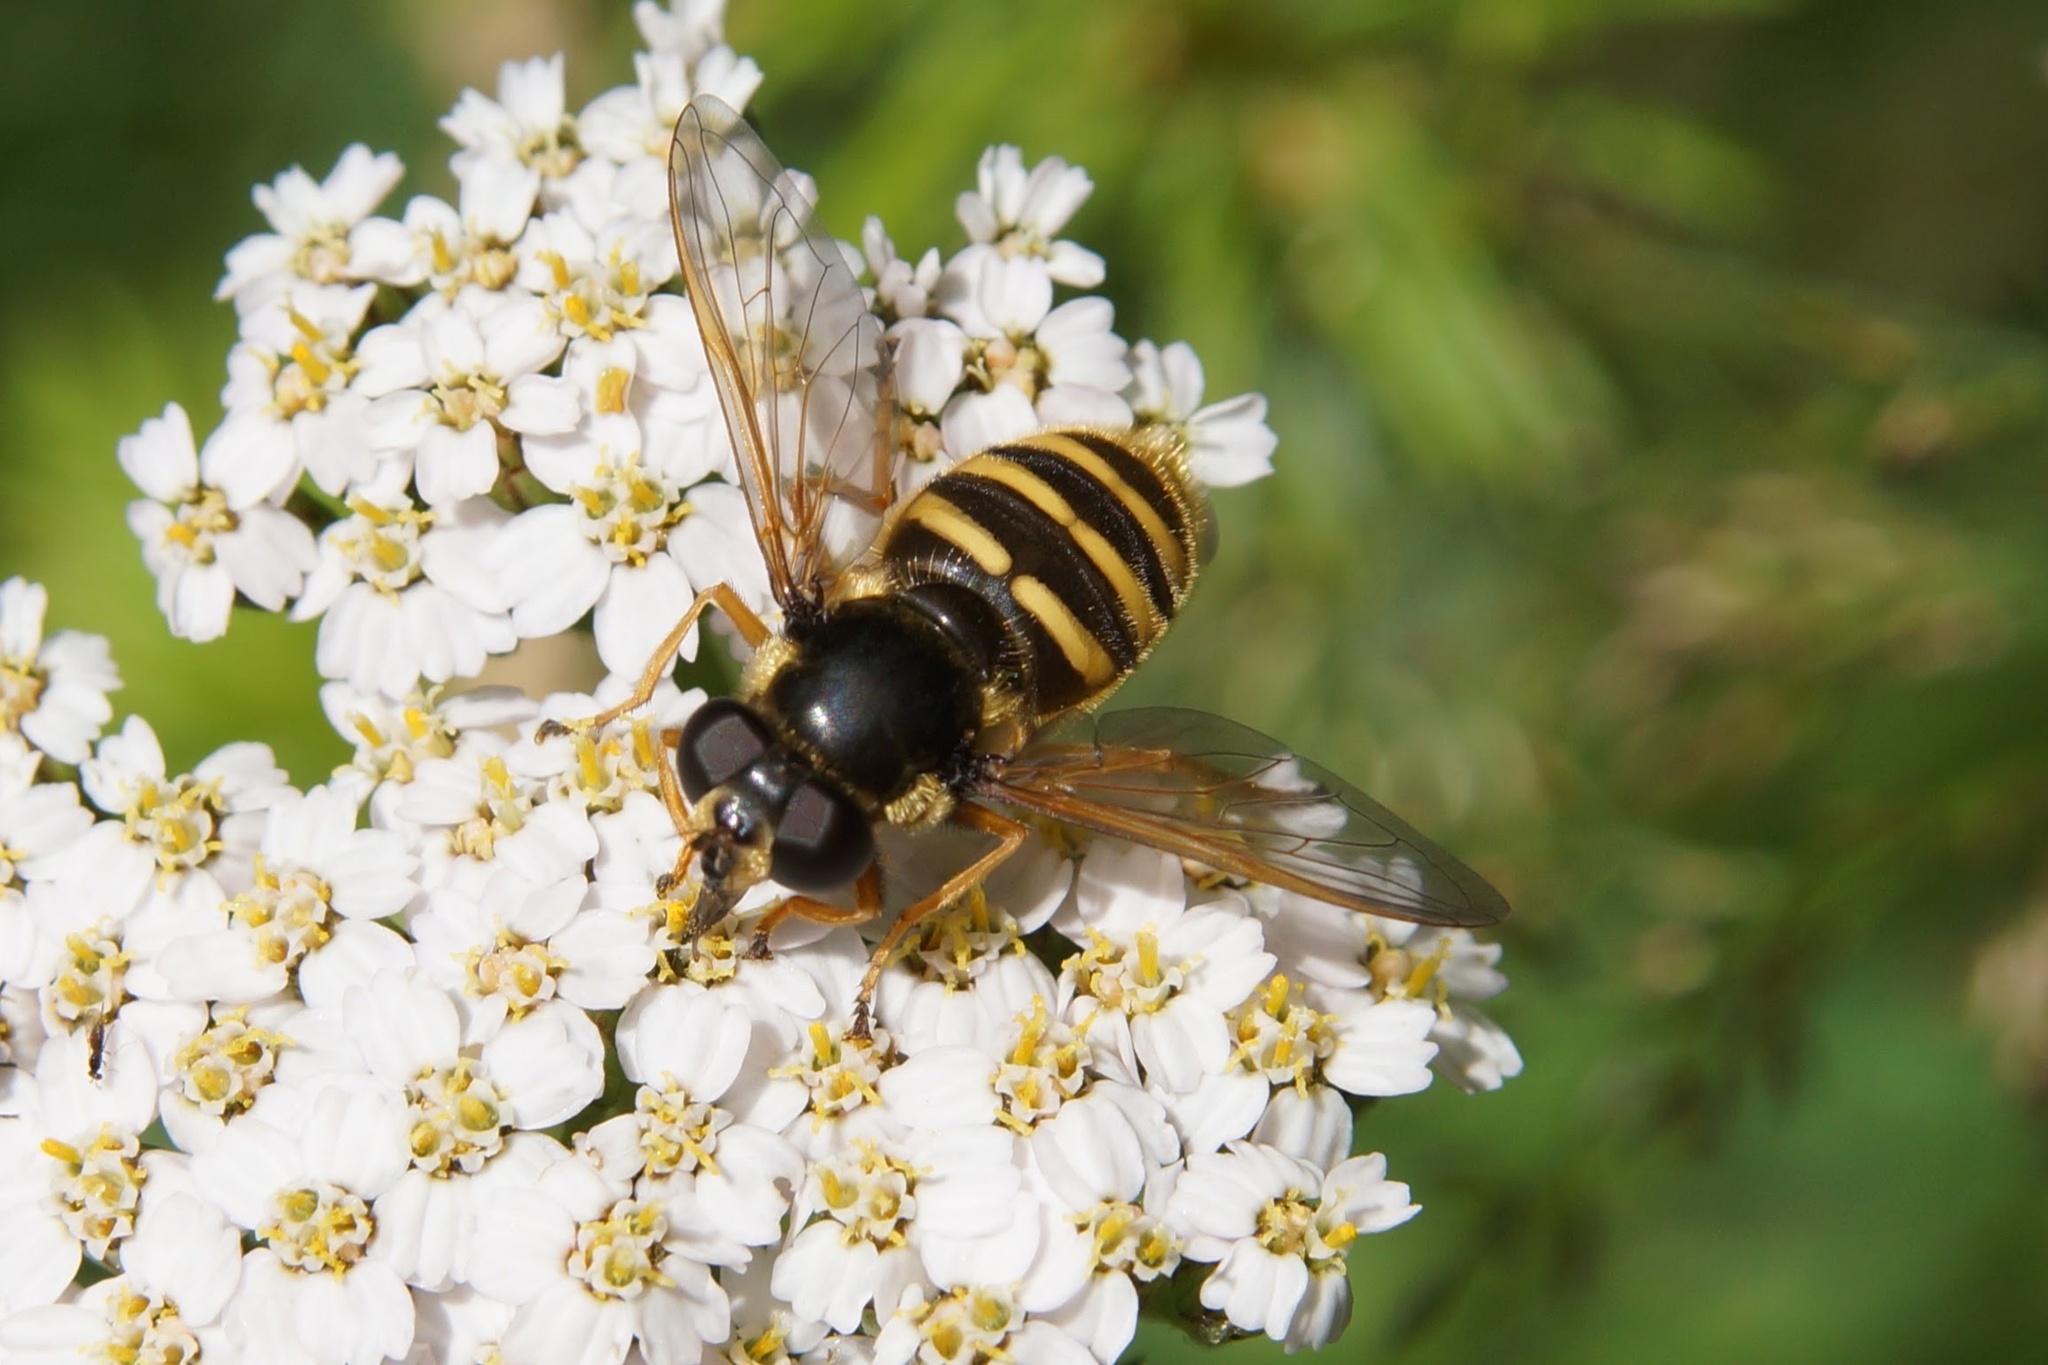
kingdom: Animalia
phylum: Arthropoda
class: Insecta
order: Diptera
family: Syrphidae
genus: Sericomyia
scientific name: Sericomyia silentis
